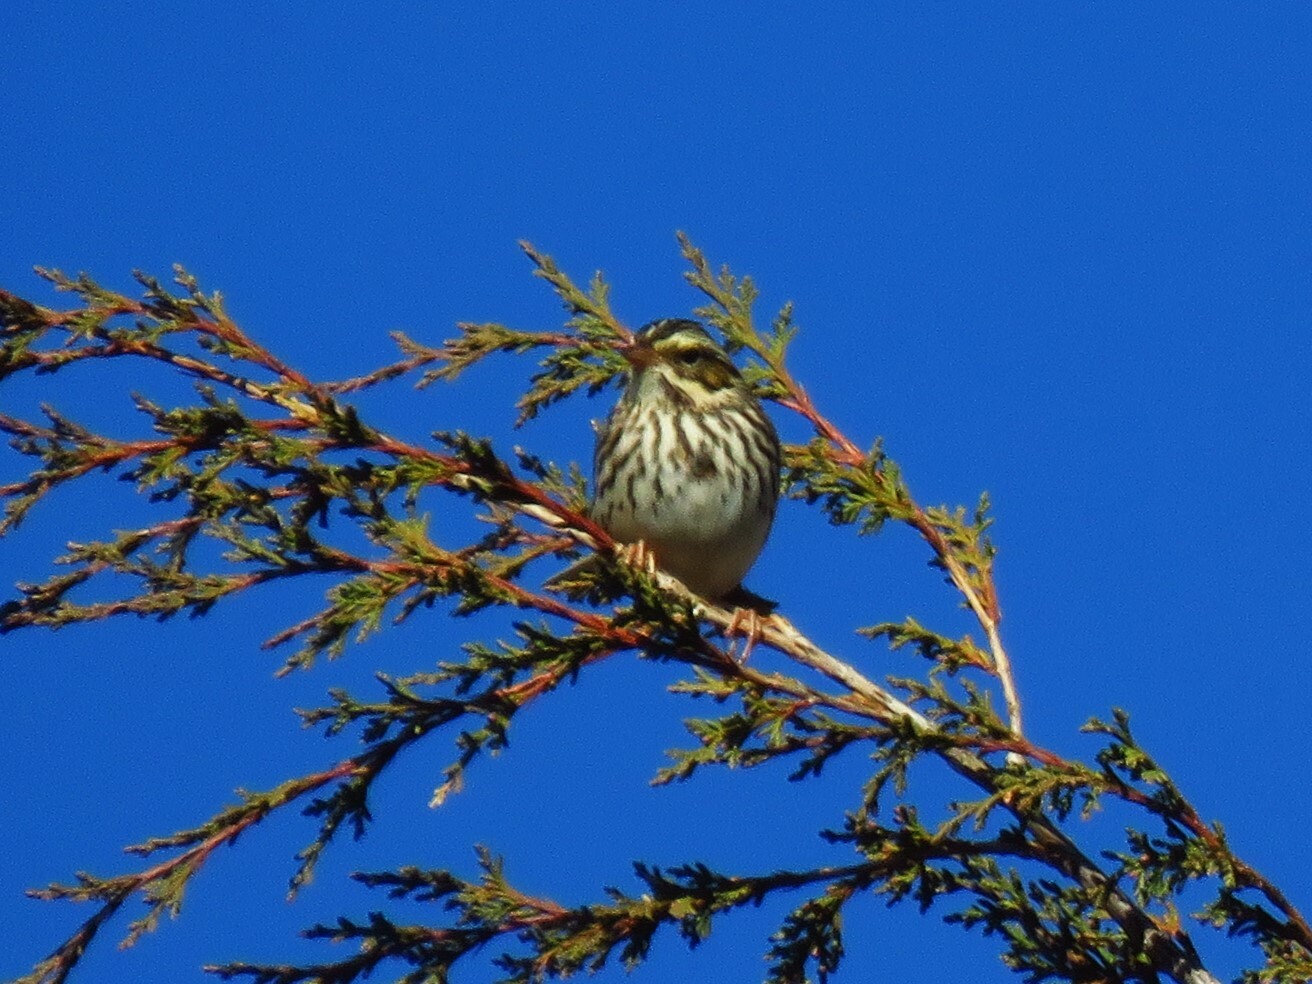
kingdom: Animalia
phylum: Chordata
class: Aves
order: Passeriformes
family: Passerellidae
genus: Passerculus
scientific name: Passerculus sandwichensis
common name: Savannah sparrow
